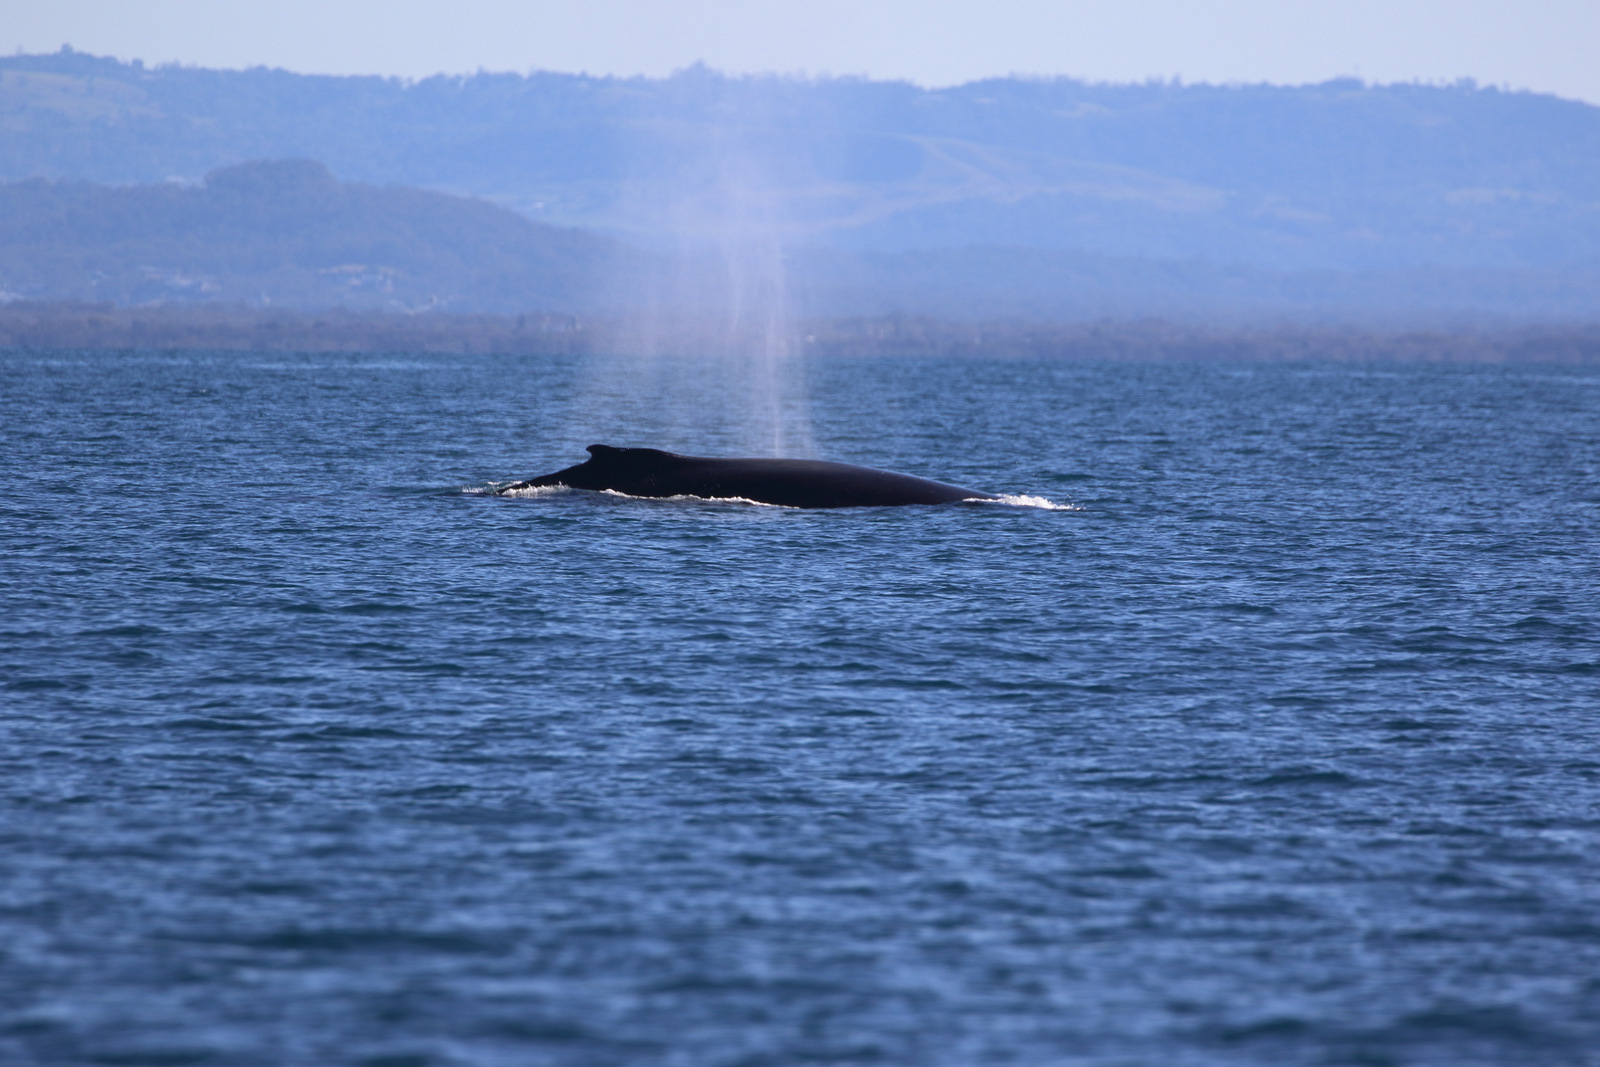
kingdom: Animalia
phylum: Chordata
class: Mammalia
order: Cetacea
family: Balaenopteridae
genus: Megaptera
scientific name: Megaptera novaeangliae
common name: Humpback whale
